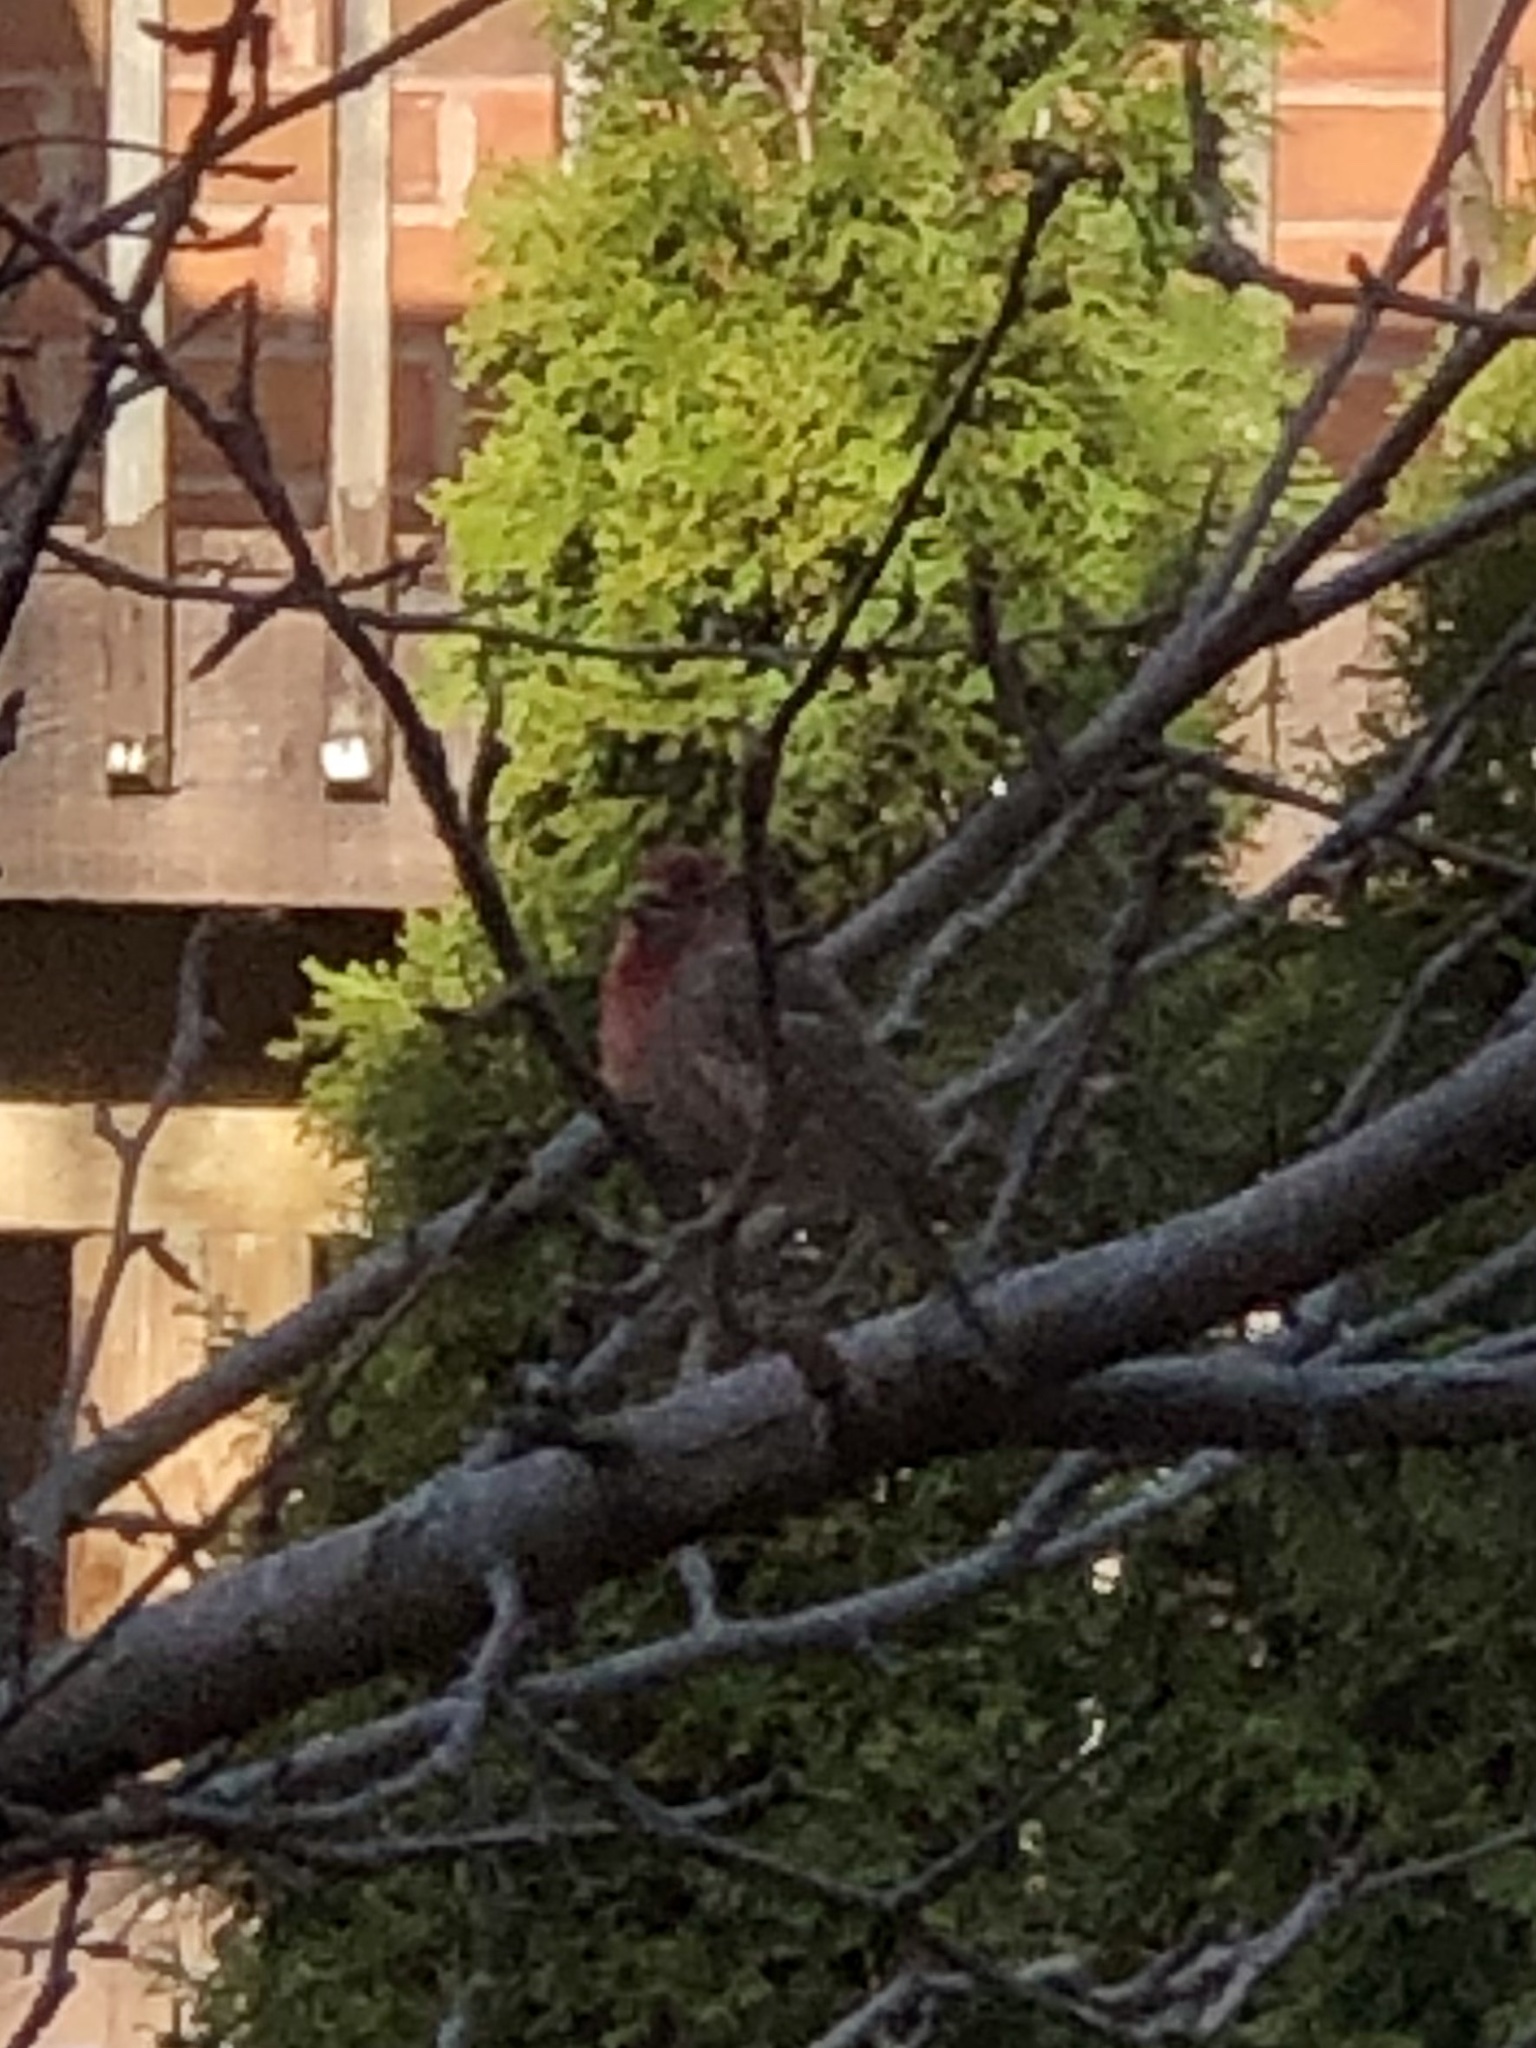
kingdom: Animalia
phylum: Chordata
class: Aves
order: Passeriformes
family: Fringillidae
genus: Haemorhous
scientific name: Haemorhous mexicanus
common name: House finch
